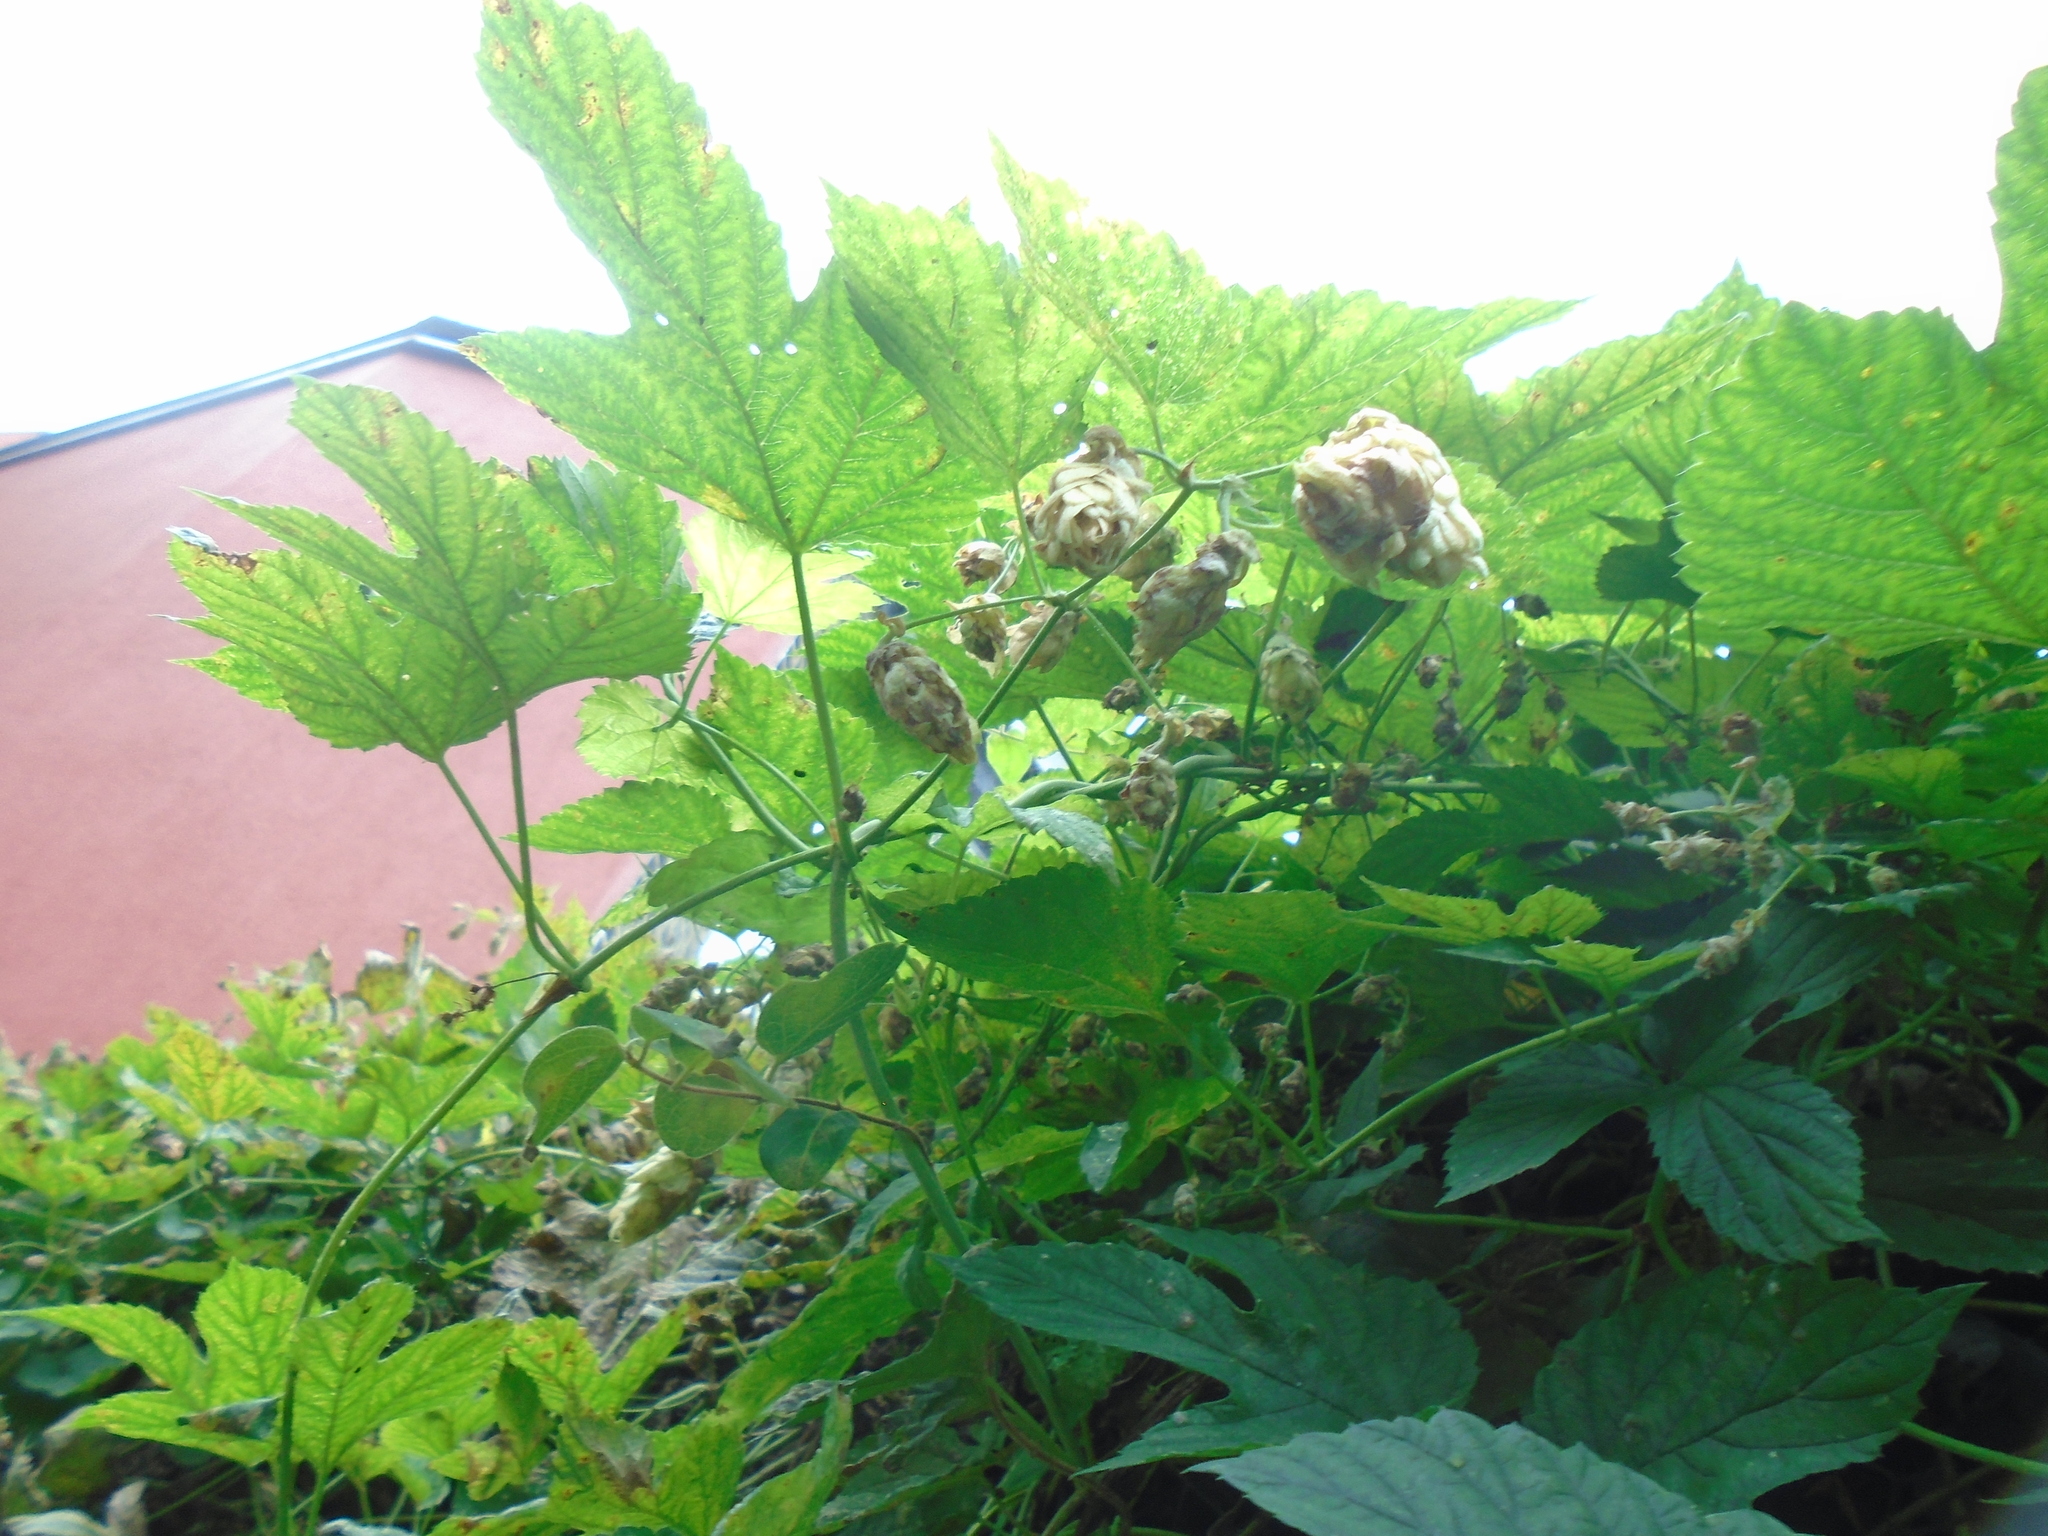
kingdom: Plantae
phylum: Tracheophyta
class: Magnoliopsida
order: Rosales
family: Cannabaceae
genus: Humulus
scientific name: Humulus lupulus
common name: Hop
